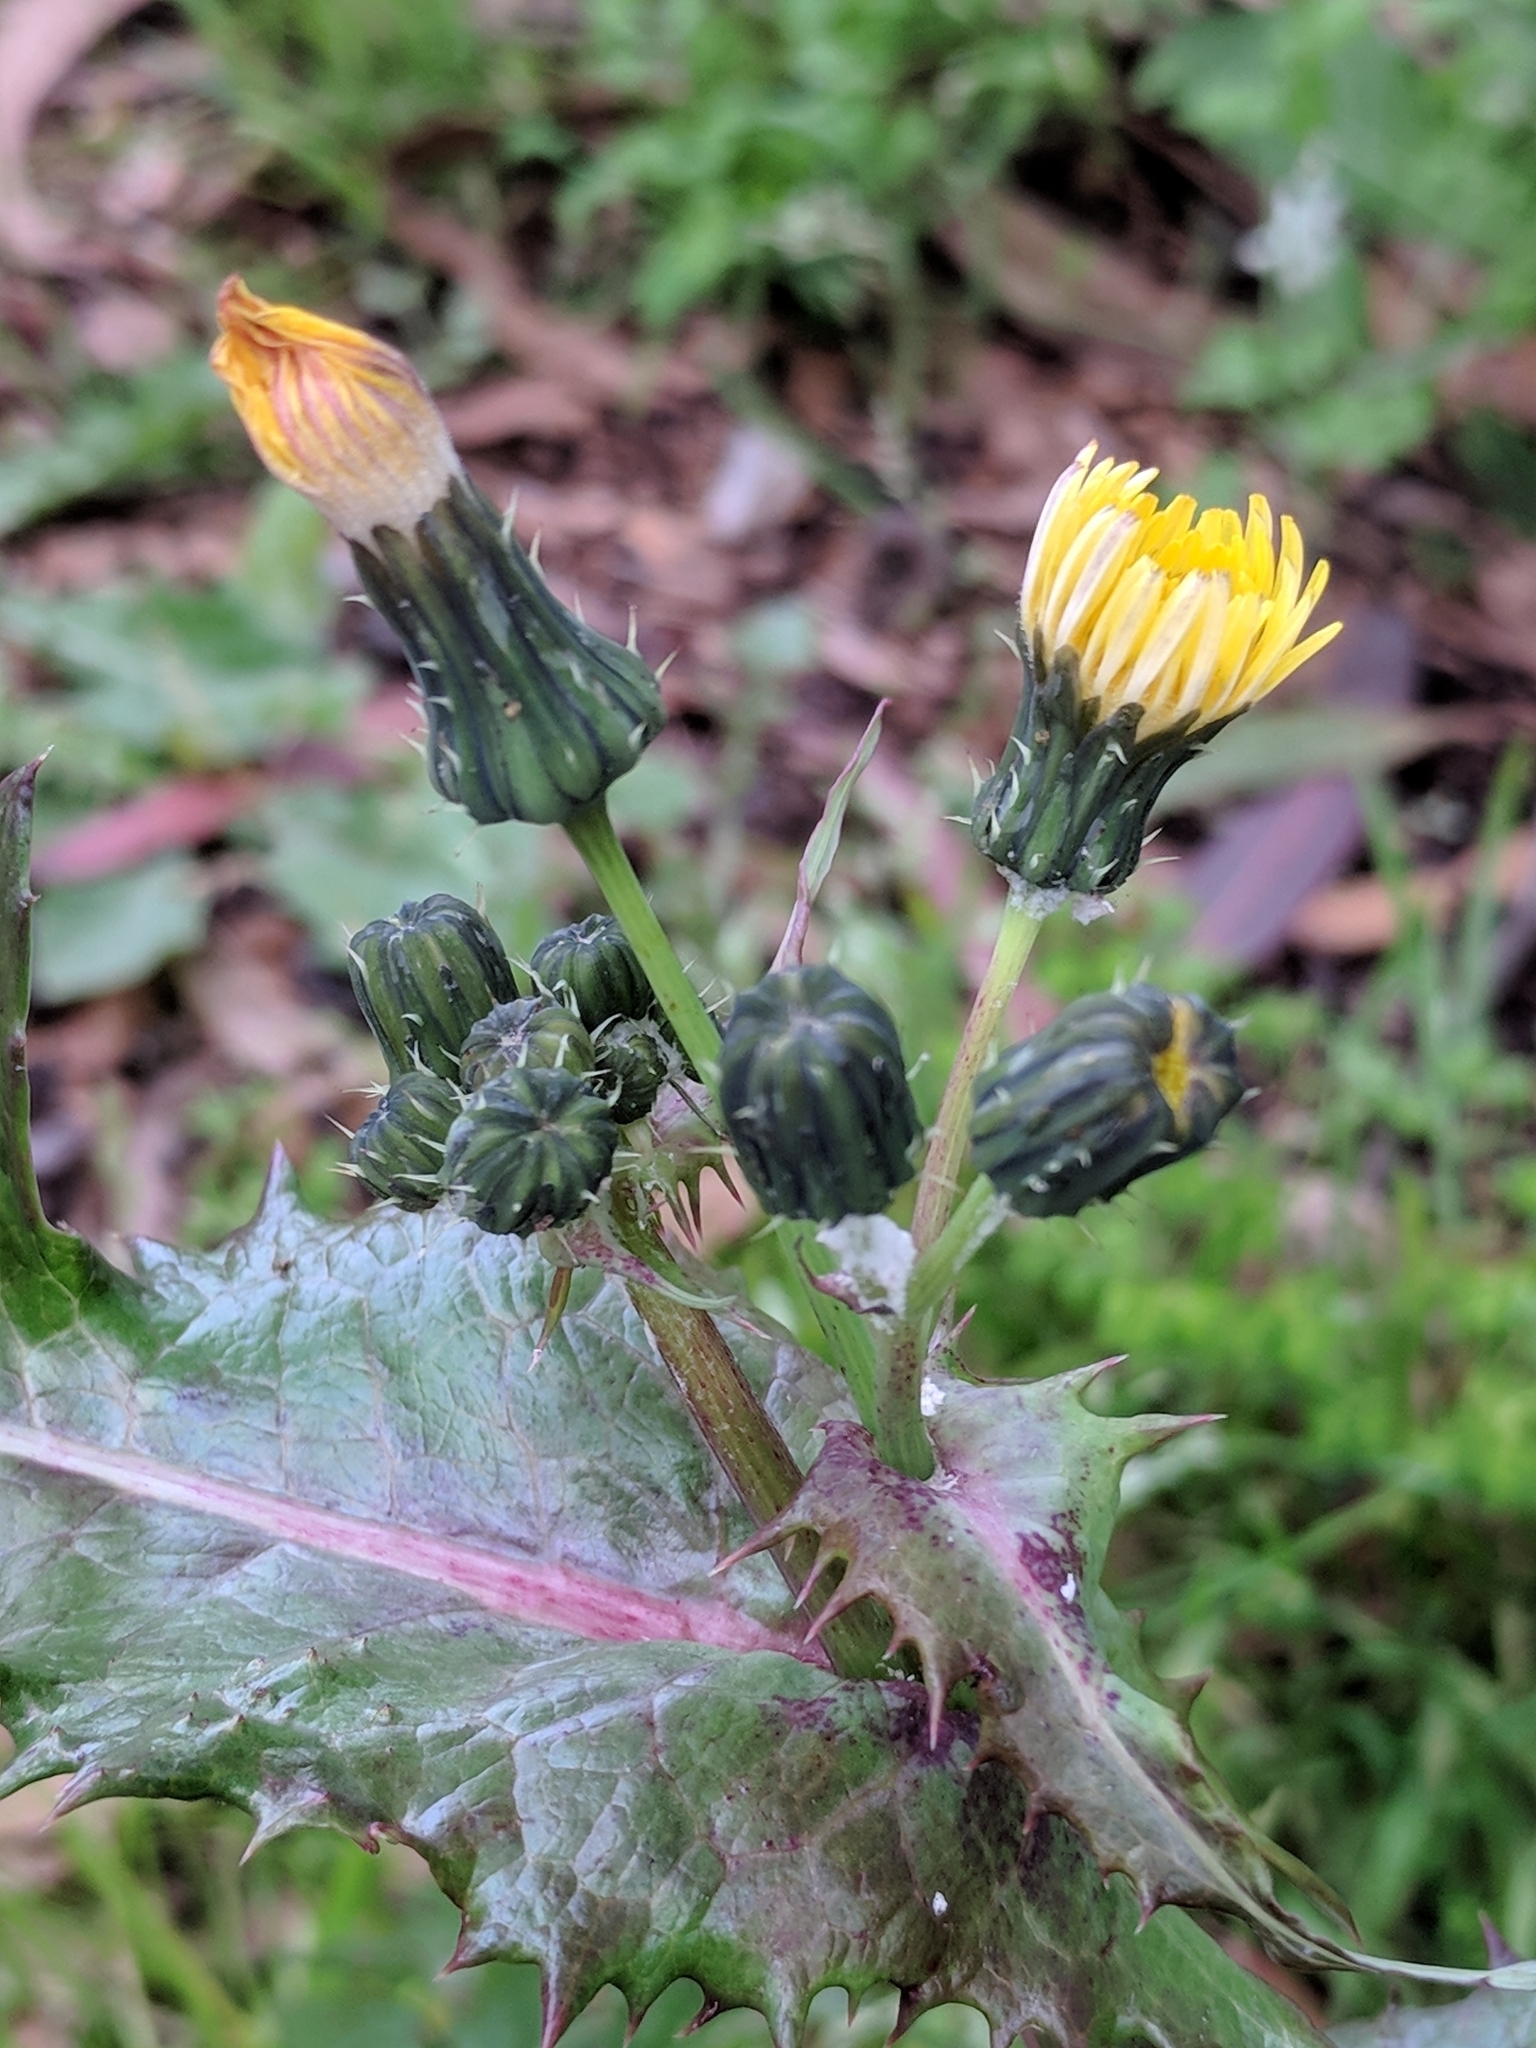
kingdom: Plantae
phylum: Tracheophyta
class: Magnoliopsida
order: Asterales
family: Asteraceae
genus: Sonchus
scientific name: Sonchus oleraceus
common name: Common sowthistle
